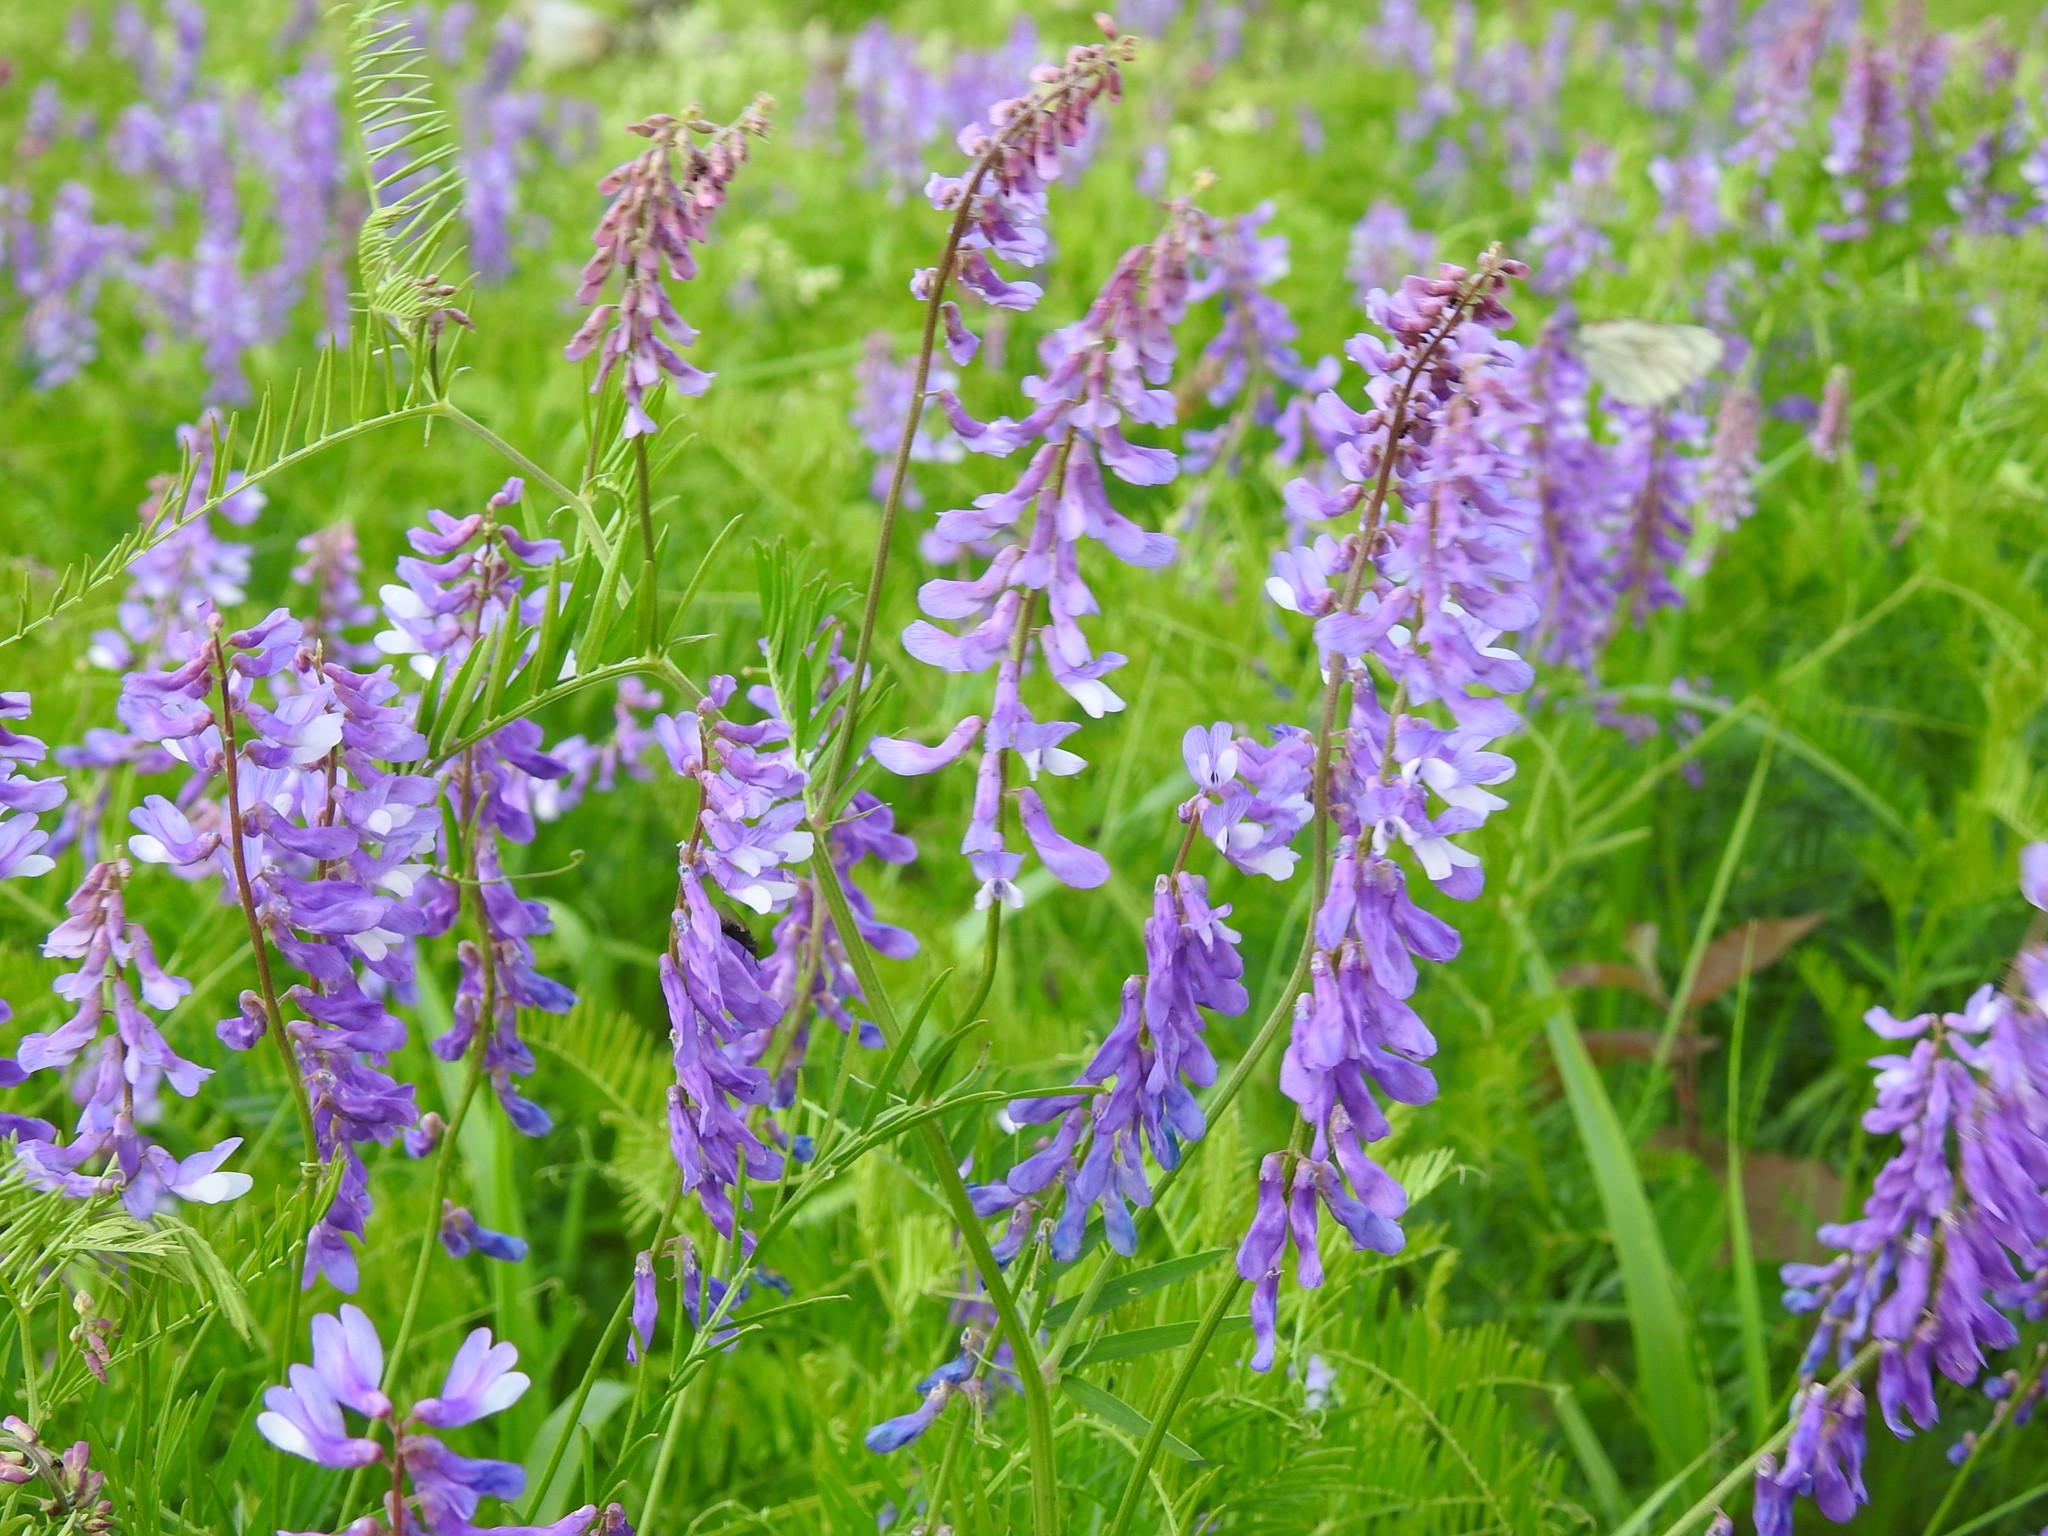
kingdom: Plantae
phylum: Tracheophyta
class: Magnoliopsida
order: Fabales
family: Fabaceae
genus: Vicia
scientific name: Vicia tenuifolia
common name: Fine-leaved vetch
